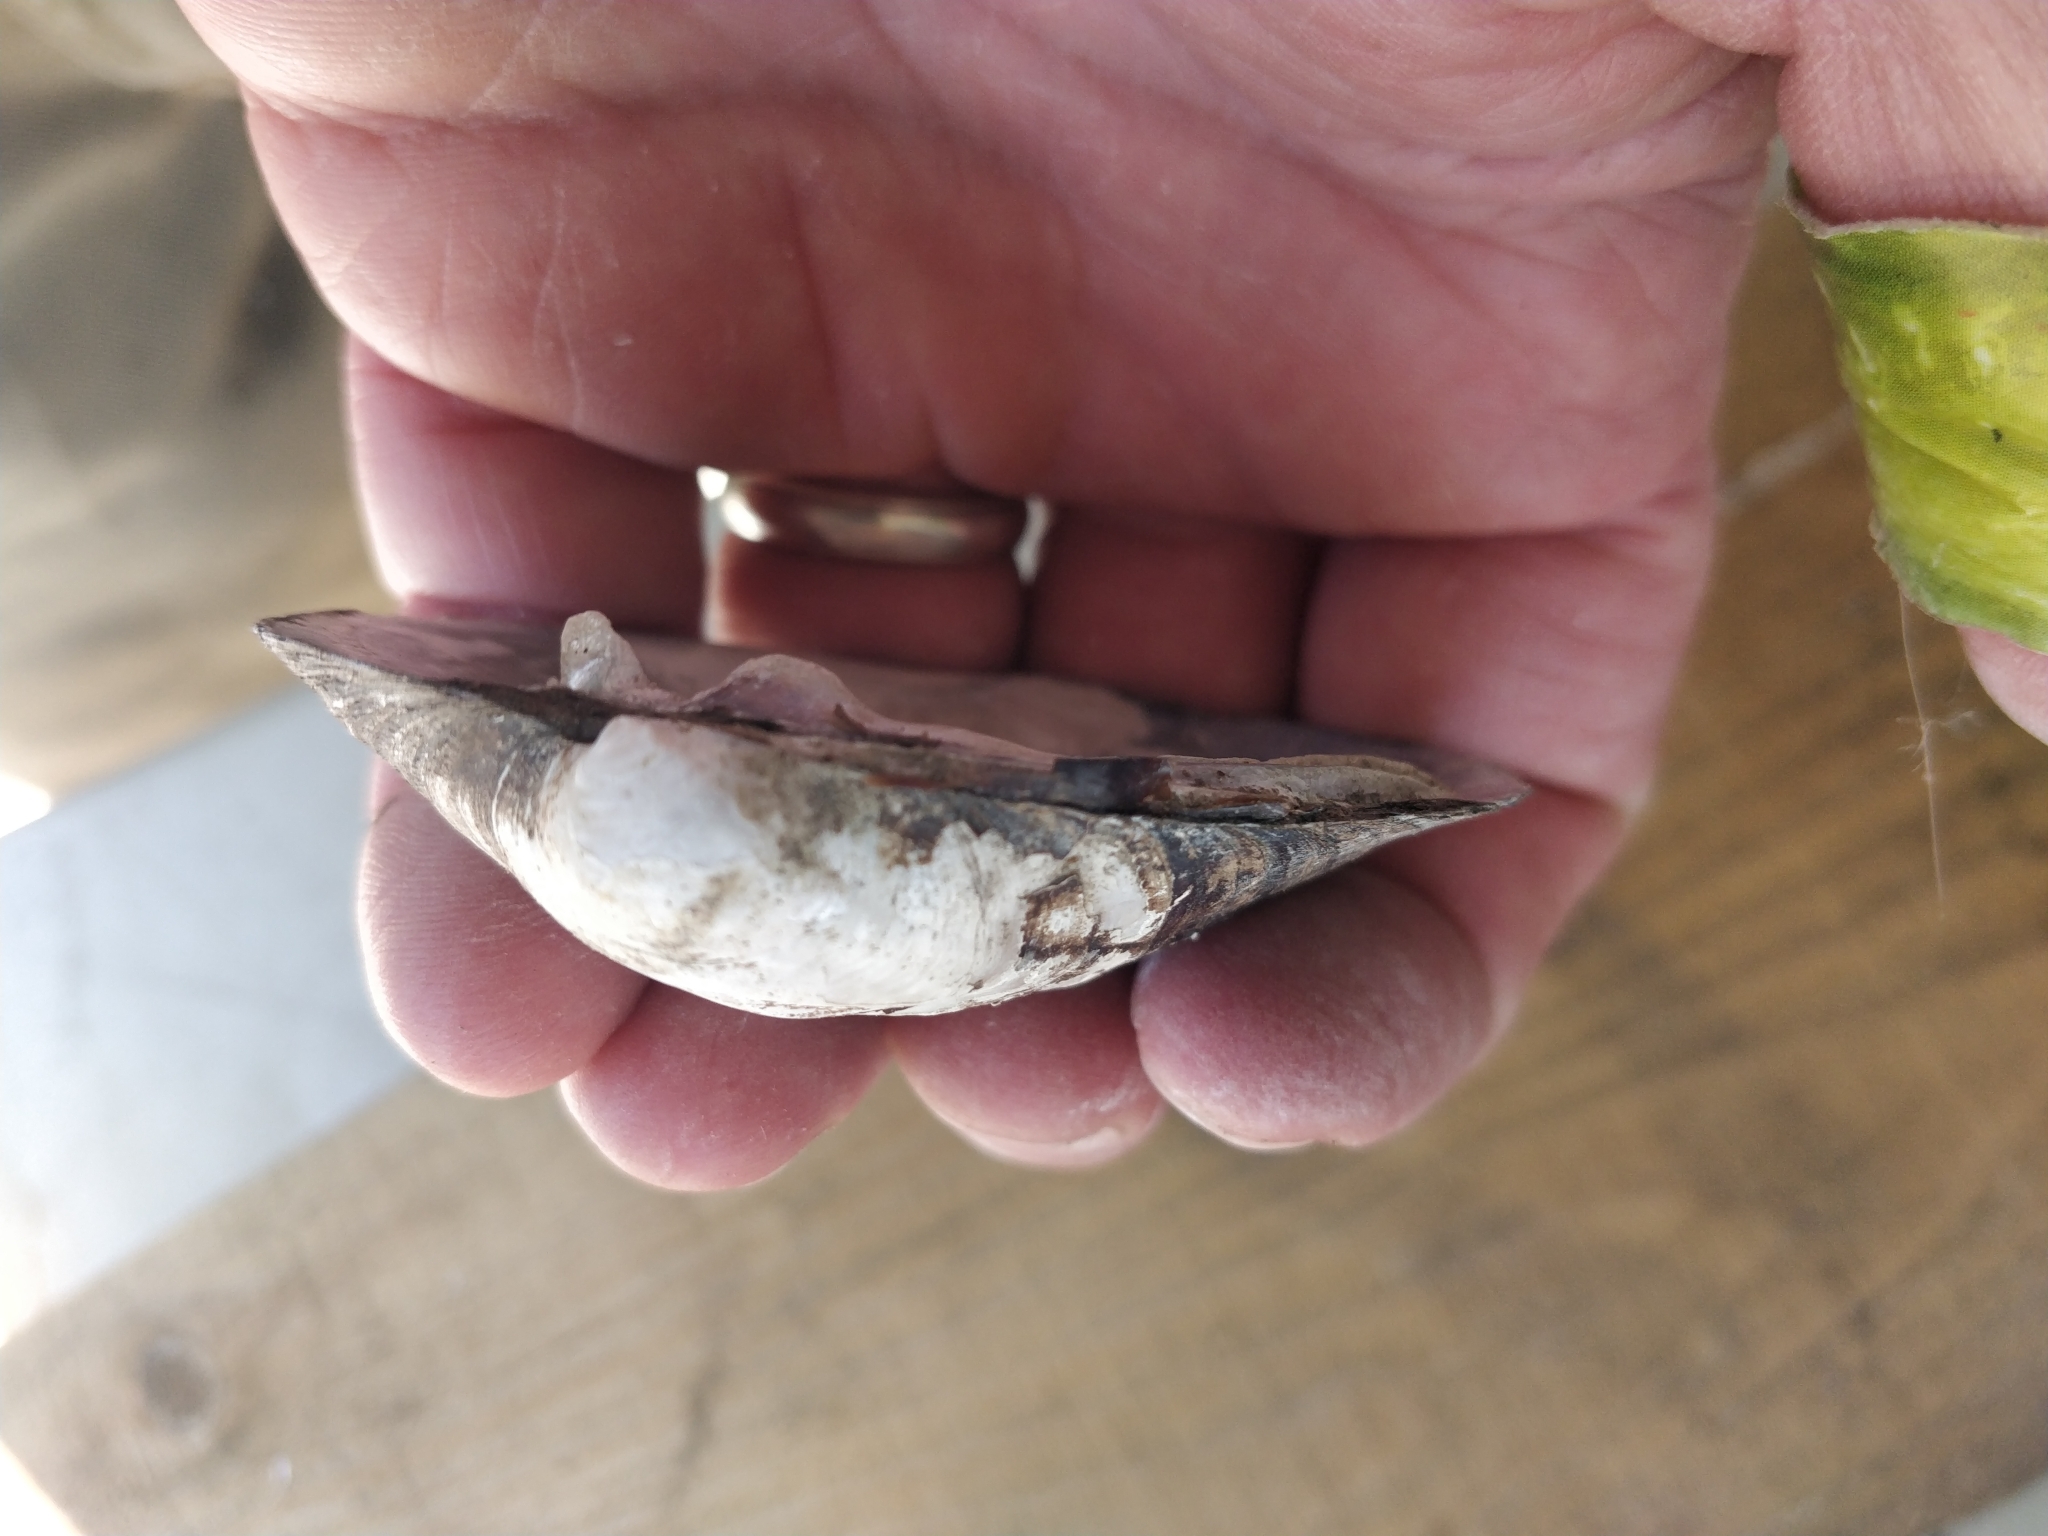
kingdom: Animalia
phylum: Mollusca
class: Bivalvia
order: Unionida
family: Unionidae
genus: Amblema
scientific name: Amblema plicata
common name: Threeridge
